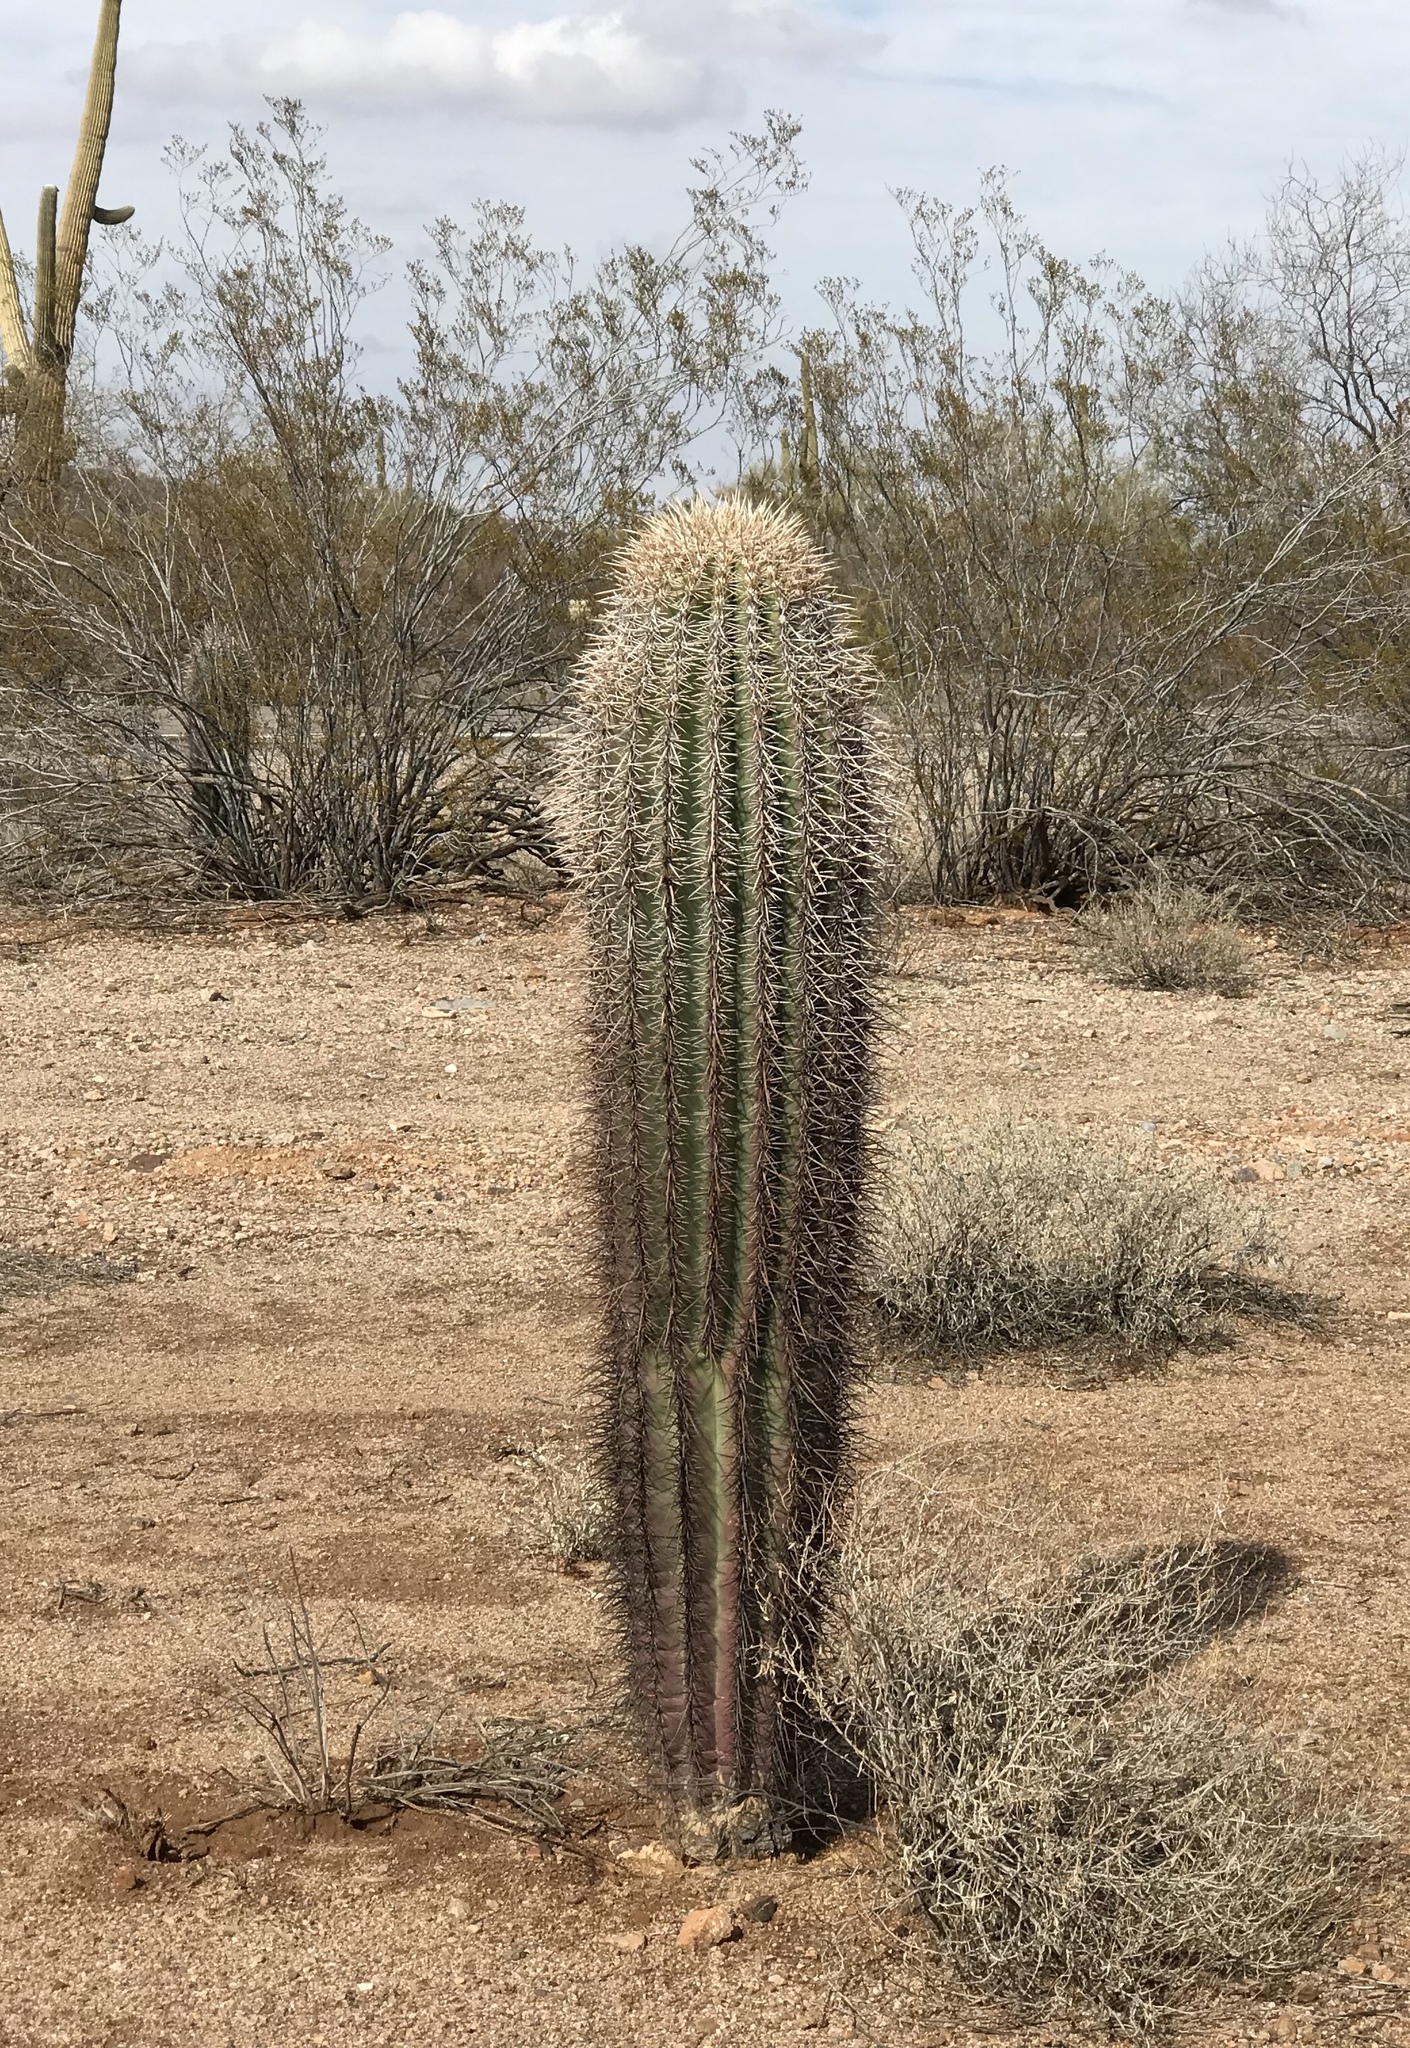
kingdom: Plantae
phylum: Tracheophyta
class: Magnoliopsida
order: Caryophyllales
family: Cactaceae
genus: Carnegiea
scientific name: Carnegiea gigantea
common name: Saguaro
